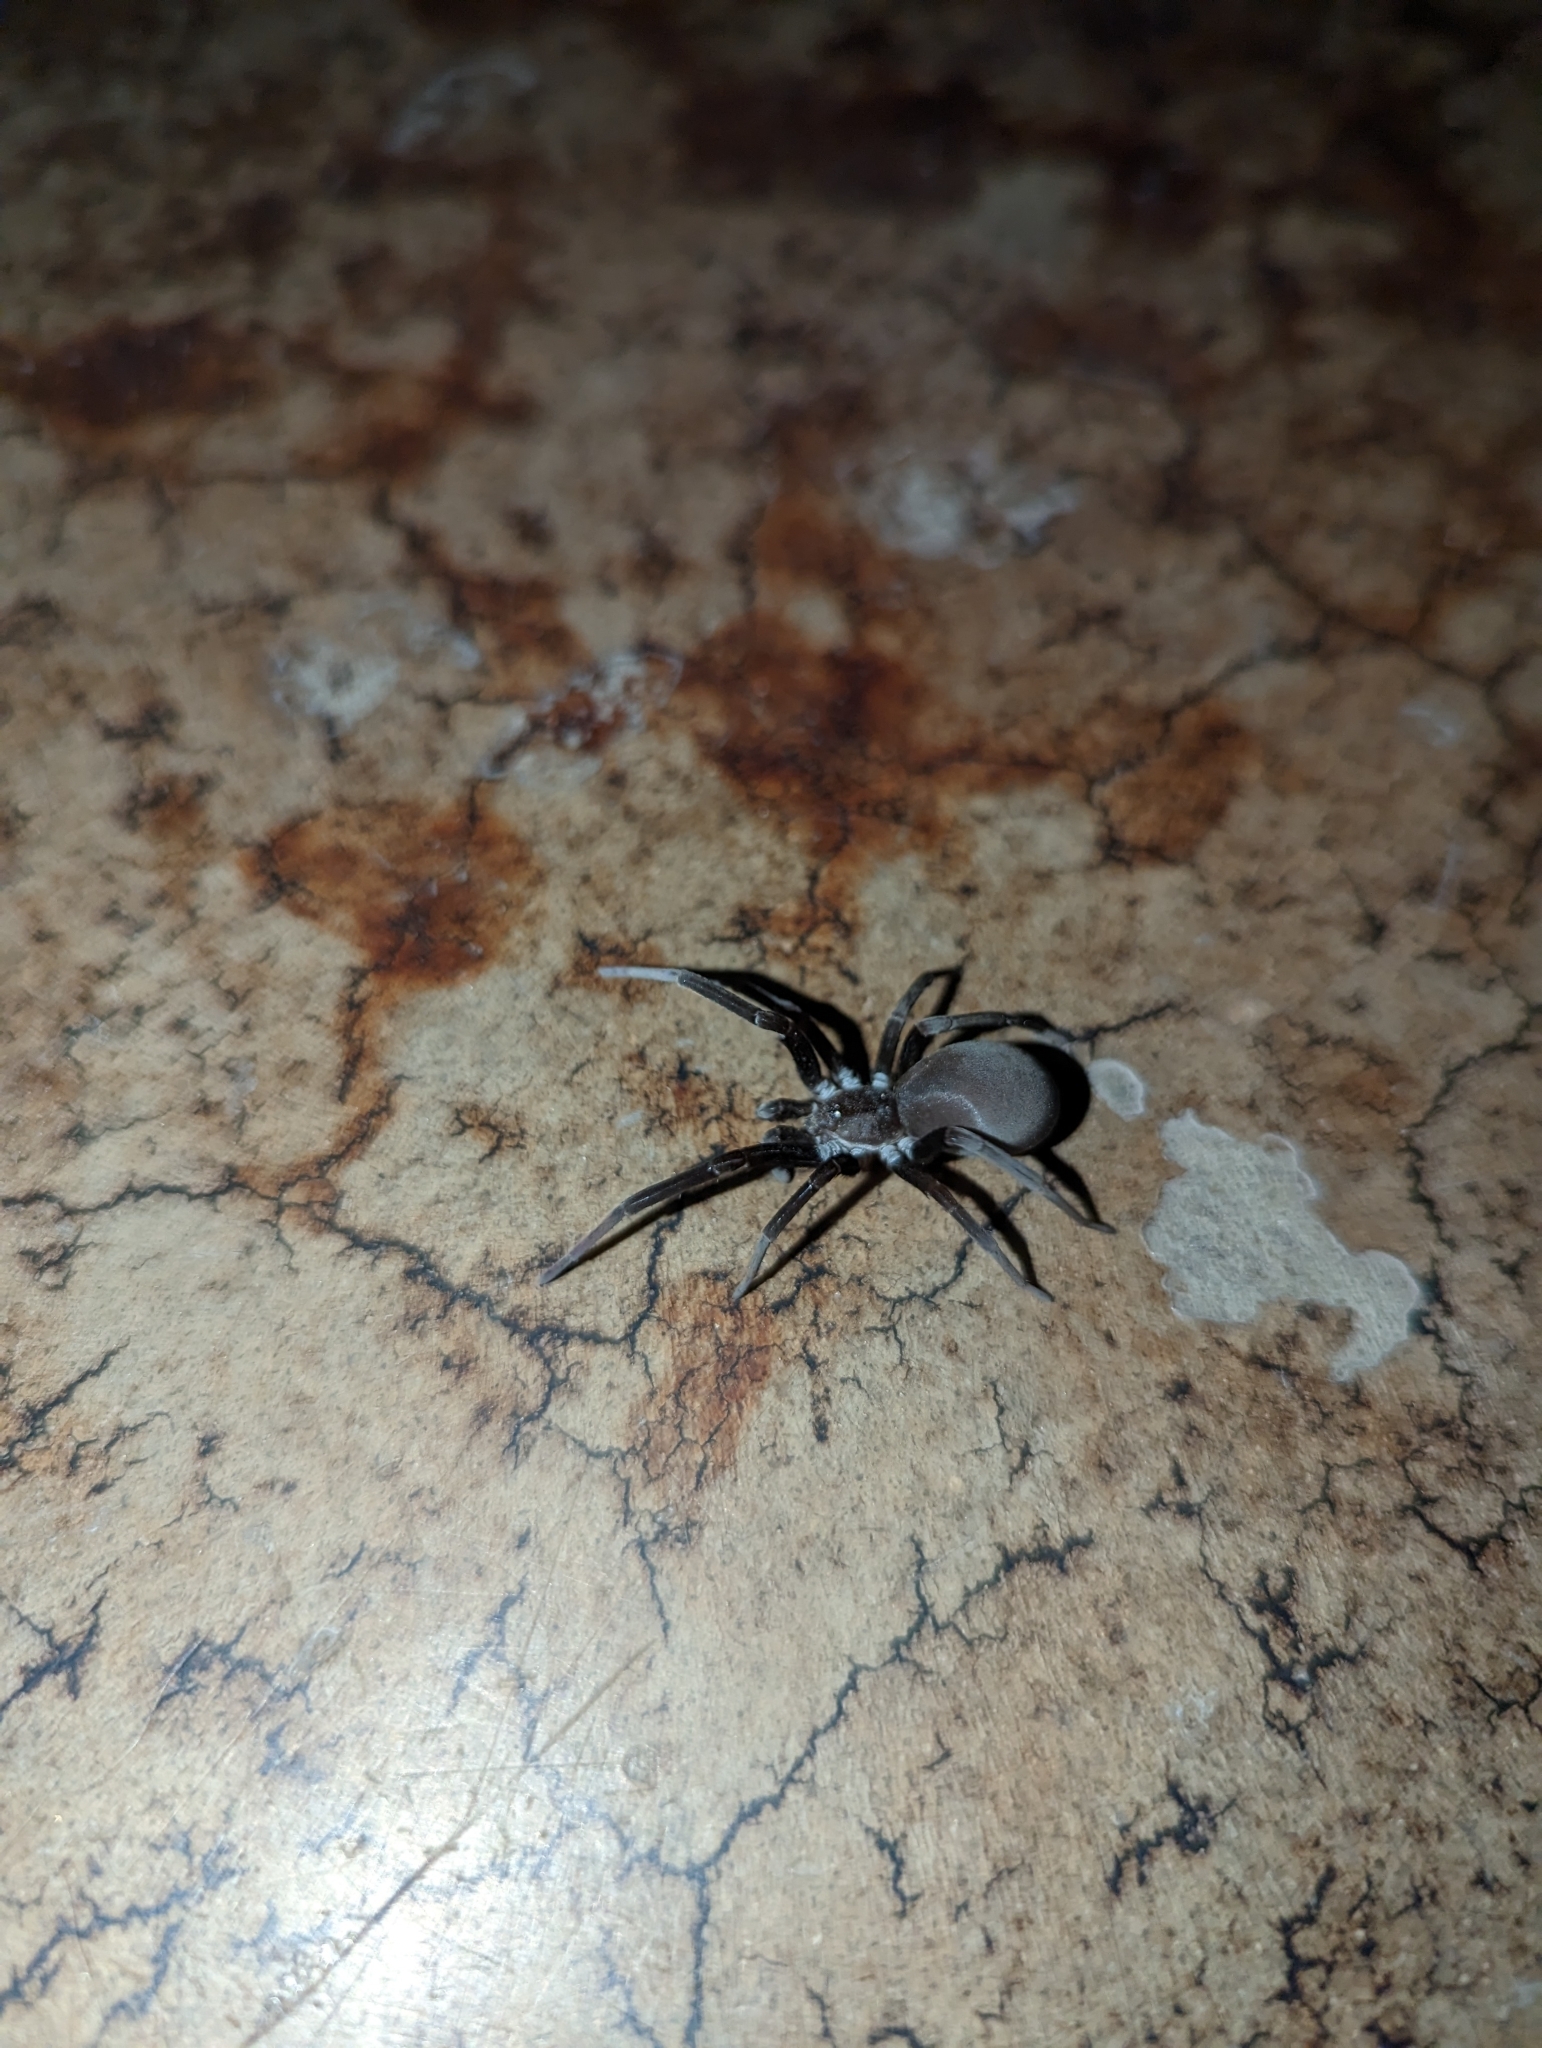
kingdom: Animalia
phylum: Arthropoda
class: Arachnida
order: Araneae
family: Filistatidae
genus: Kukulcania
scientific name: Kukulcania hibernalis
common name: Crevice weaver
